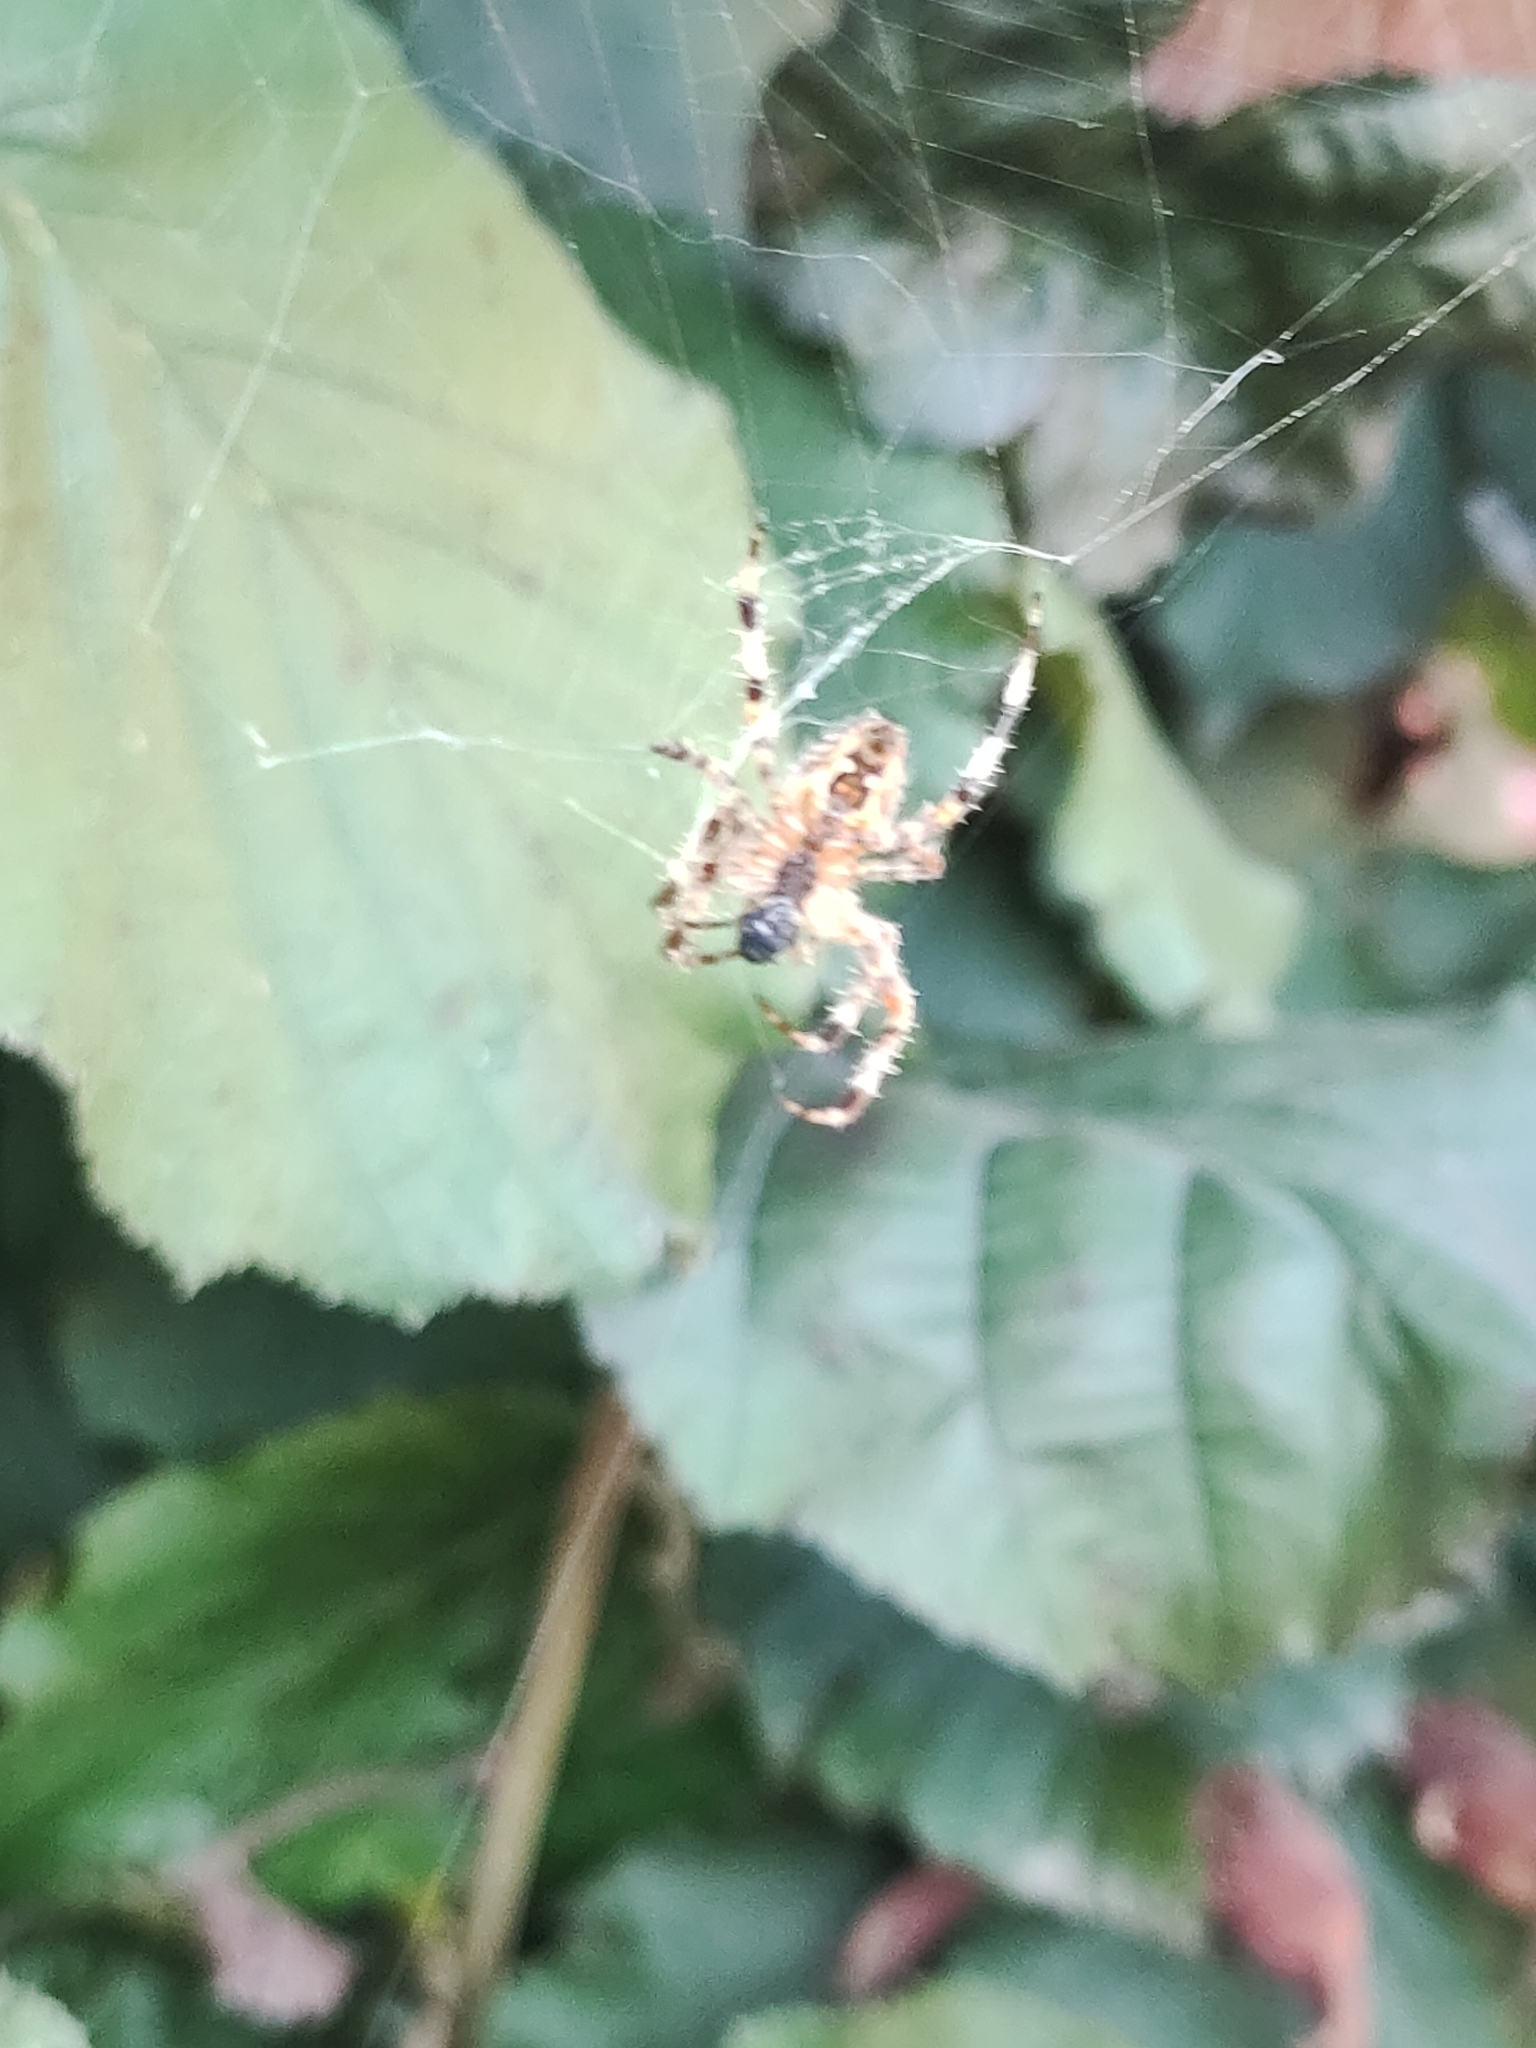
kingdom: Animalia
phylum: Arthropoda
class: Arachnida
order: Araneae
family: Araneidae
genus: Araneus
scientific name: Araneus diadematus
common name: Cross orbweaver
